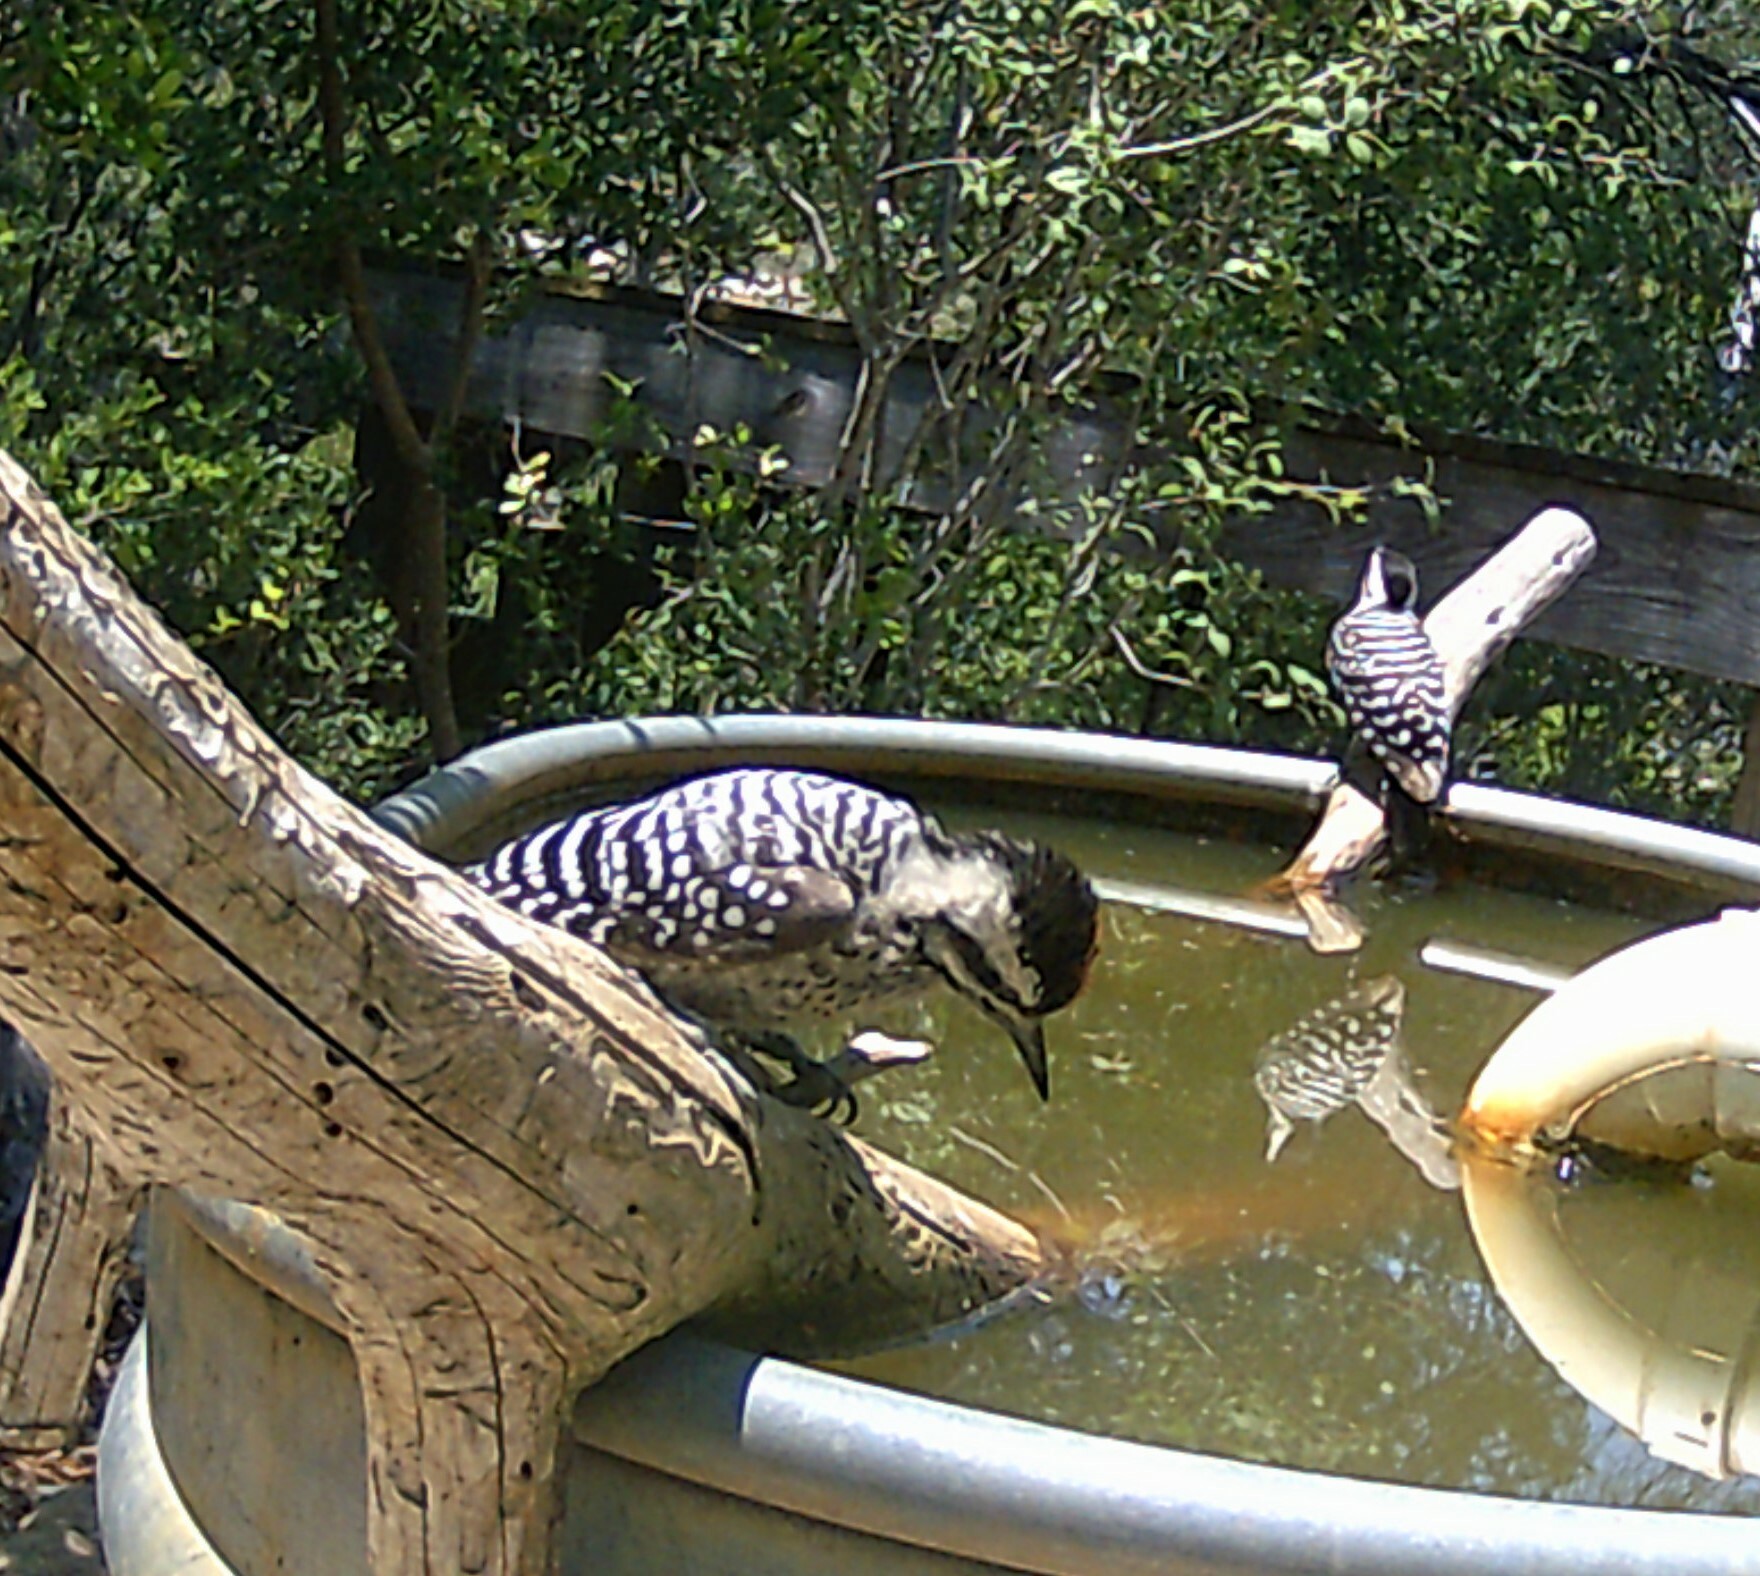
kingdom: Animalia
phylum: Chordata
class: Aves
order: Piciformes
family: Picidae
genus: Dryobates
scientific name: Dryobates scalaris
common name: Ladder-backed woodpecker
